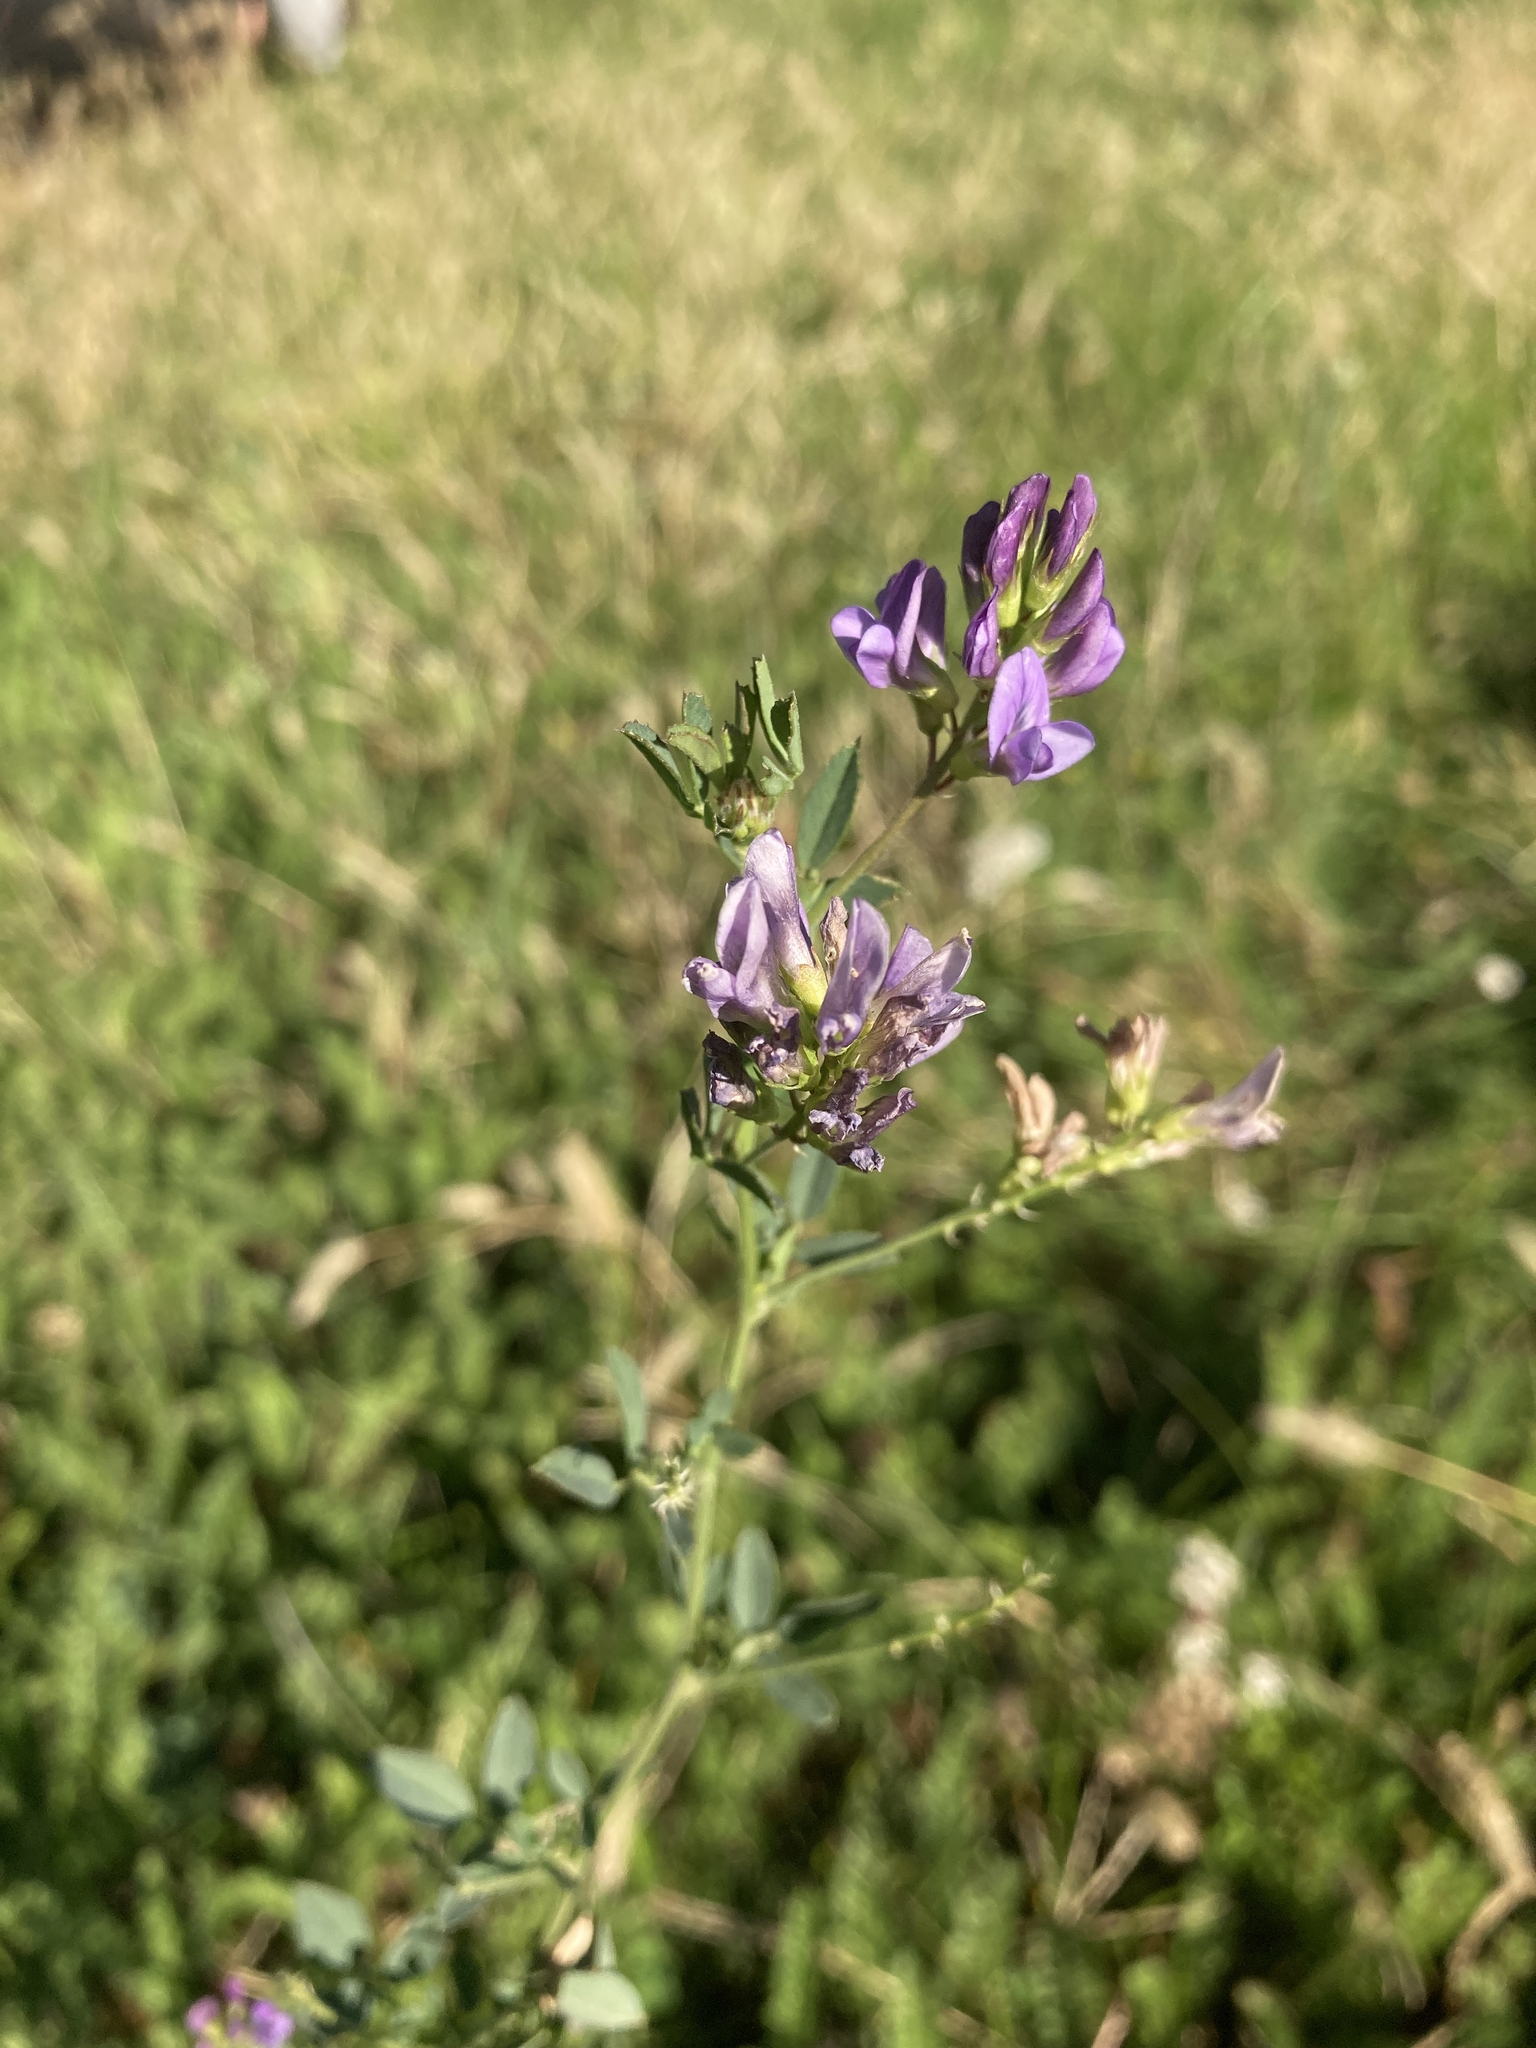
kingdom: Plantae
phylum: Tracheophyta
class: Magnoliopsida
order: Fabales
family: Fabaceae
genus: Medicago
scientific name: Medicago sativa
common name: Alfalfa
